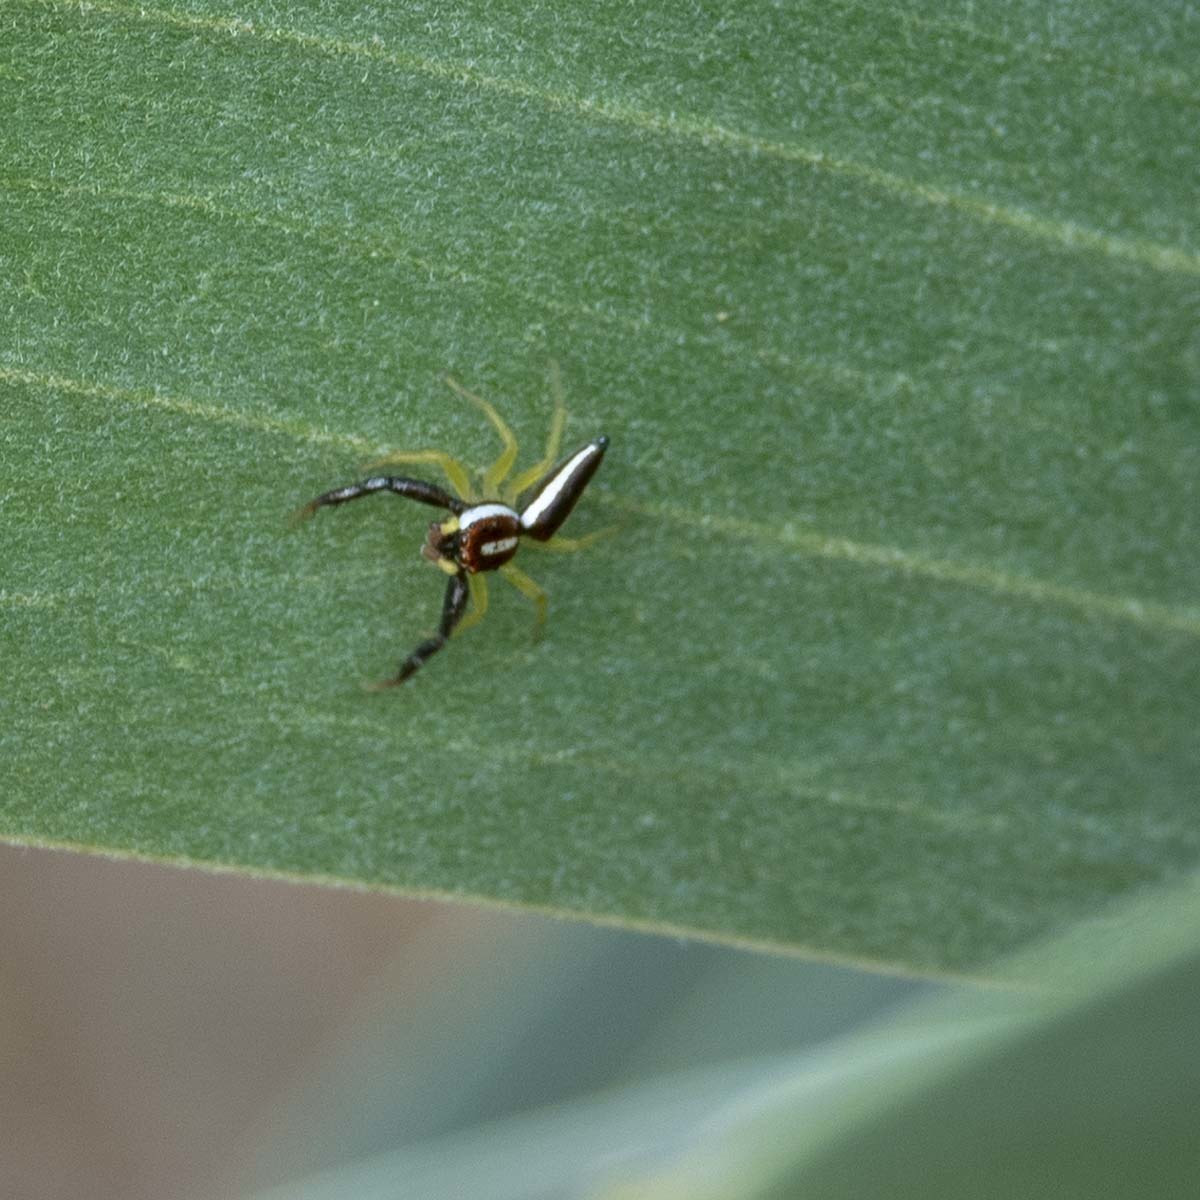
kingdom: Animalia
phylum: Arthropoda
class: Arachnida
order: Araneae
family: Salticidae
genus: Telamonia
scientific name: Telamonia dimidiata
